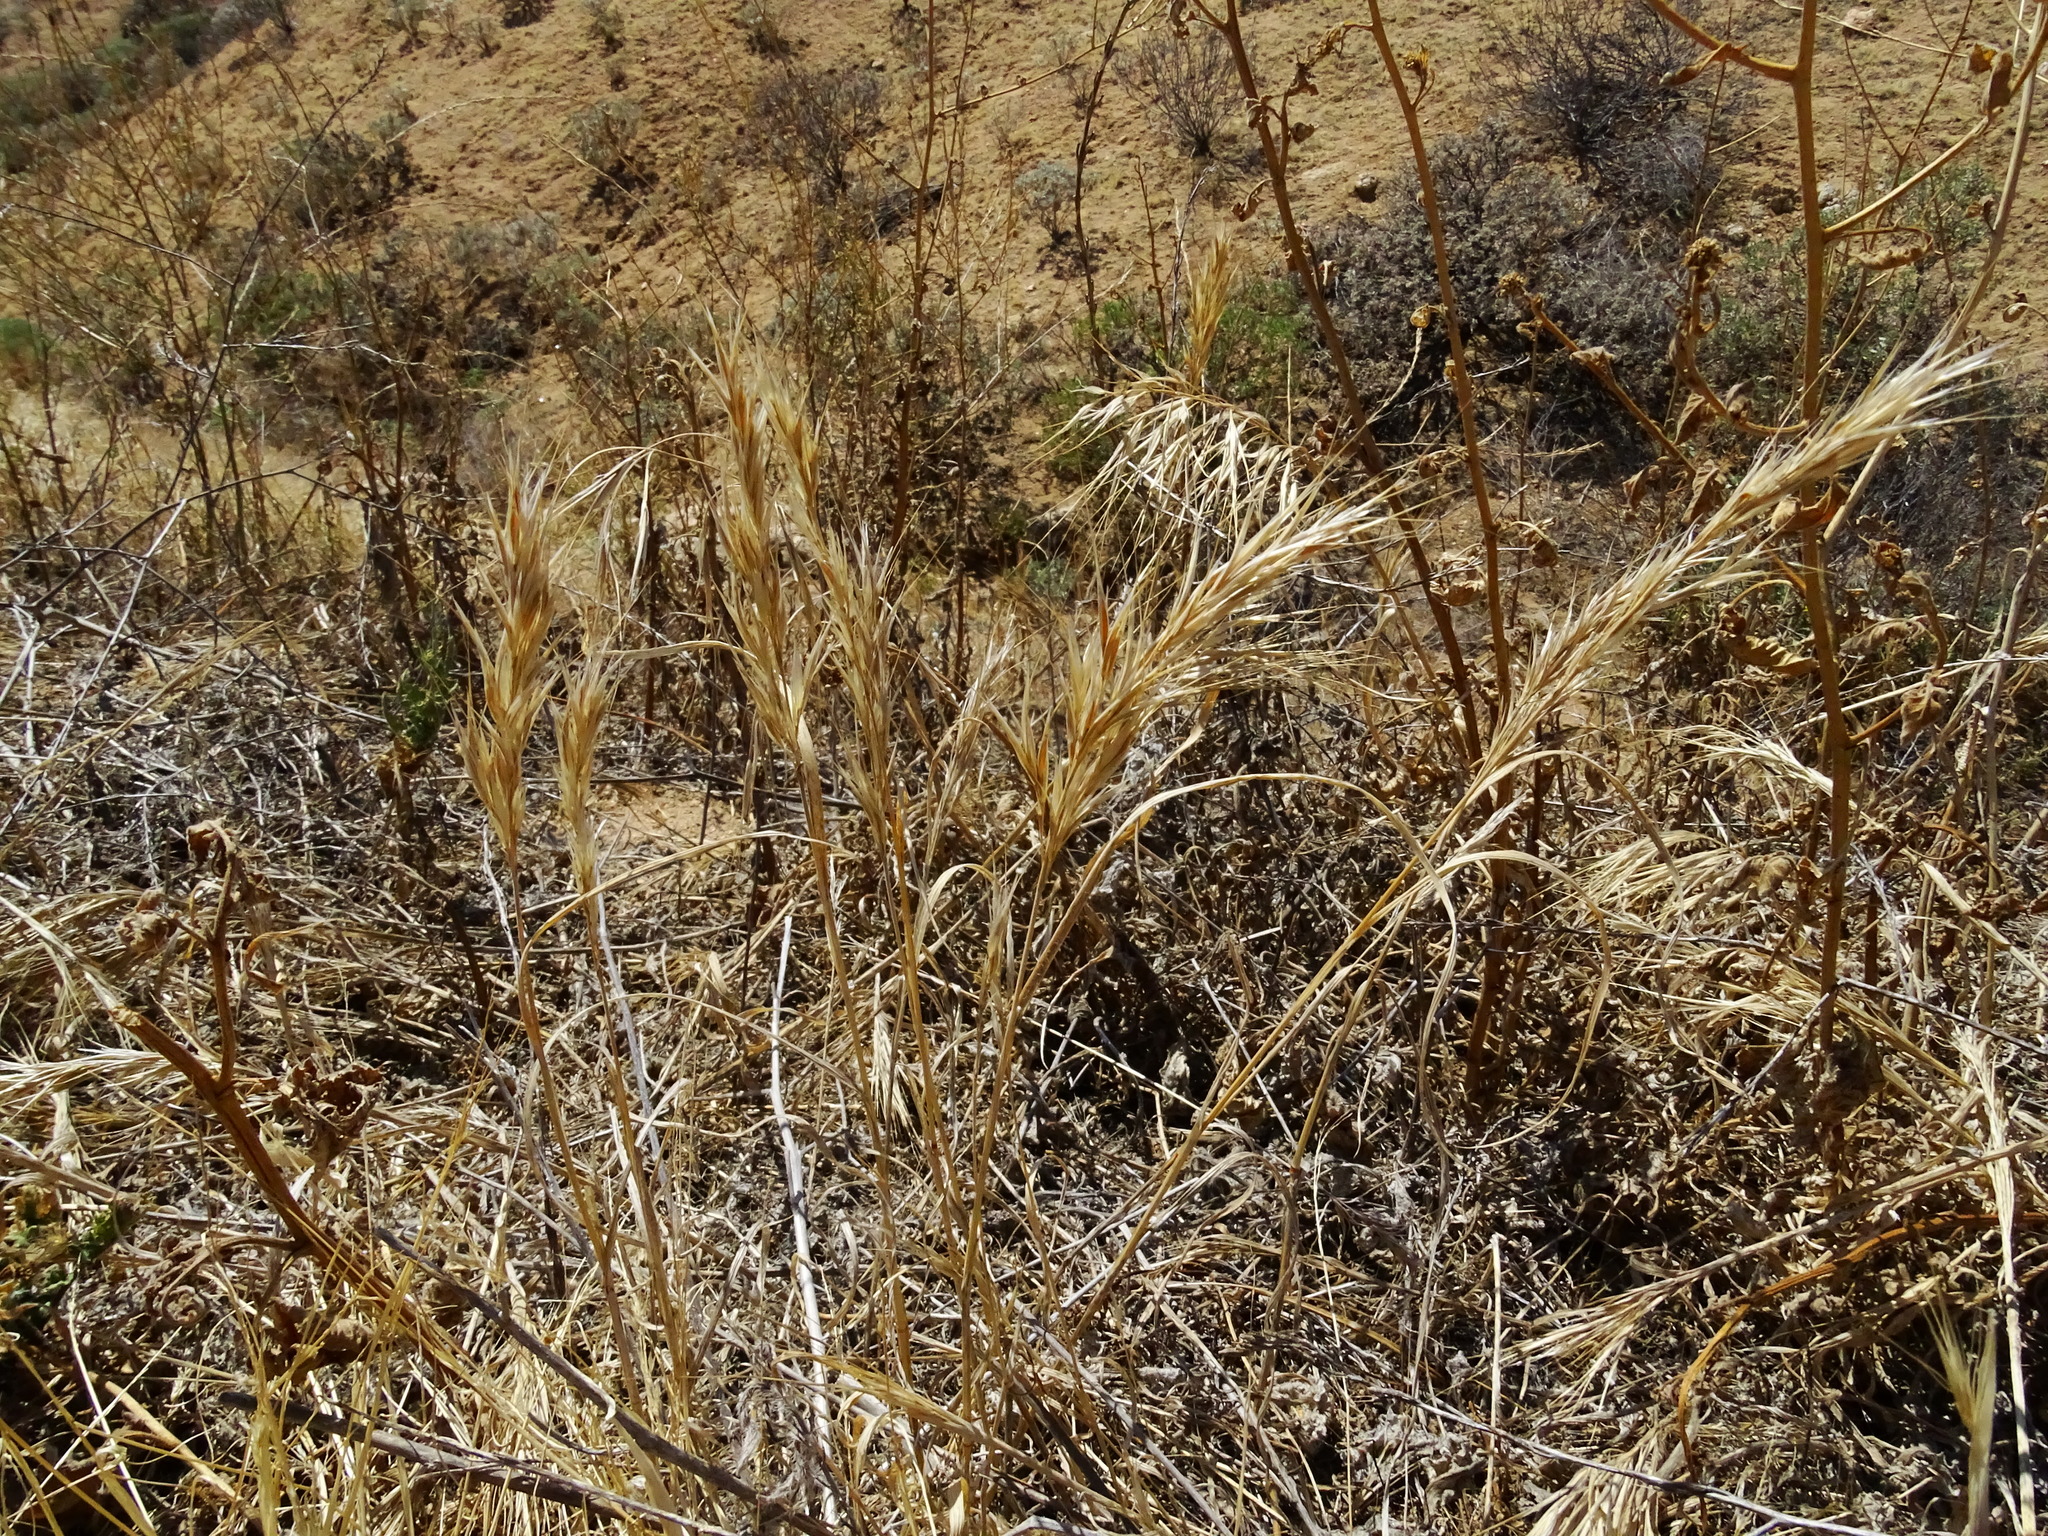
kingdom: Plantae
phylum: Tracheophyta
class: Liliopsida
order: Poales
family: Poaceae
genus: Bromus
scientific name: Bromus madritensis
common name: Compact brome
